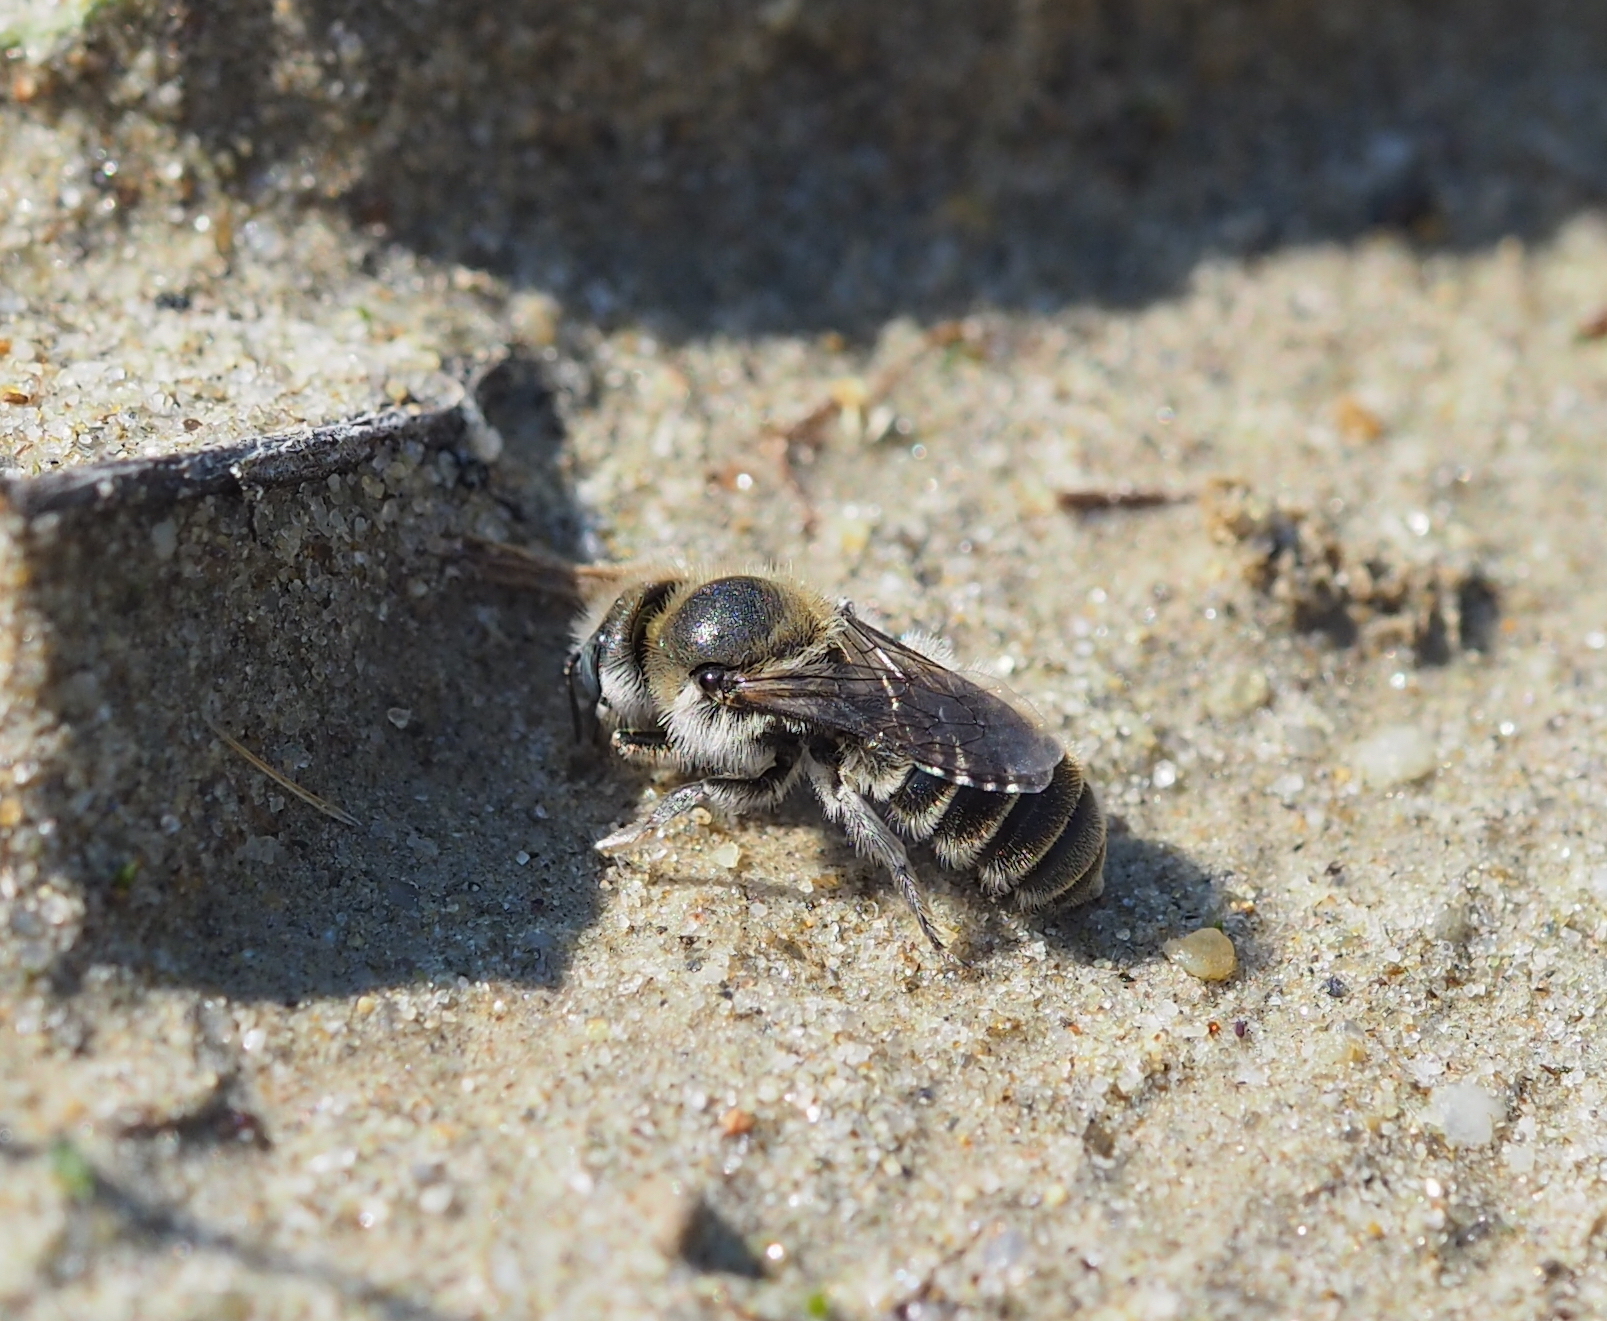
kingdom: Animalia
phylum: Arthropoda
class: Insecta
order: Hymenoptera
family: Megachilidae
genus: Hoplitis
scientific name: Hoplitis anthocopoides
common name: Mason bee
